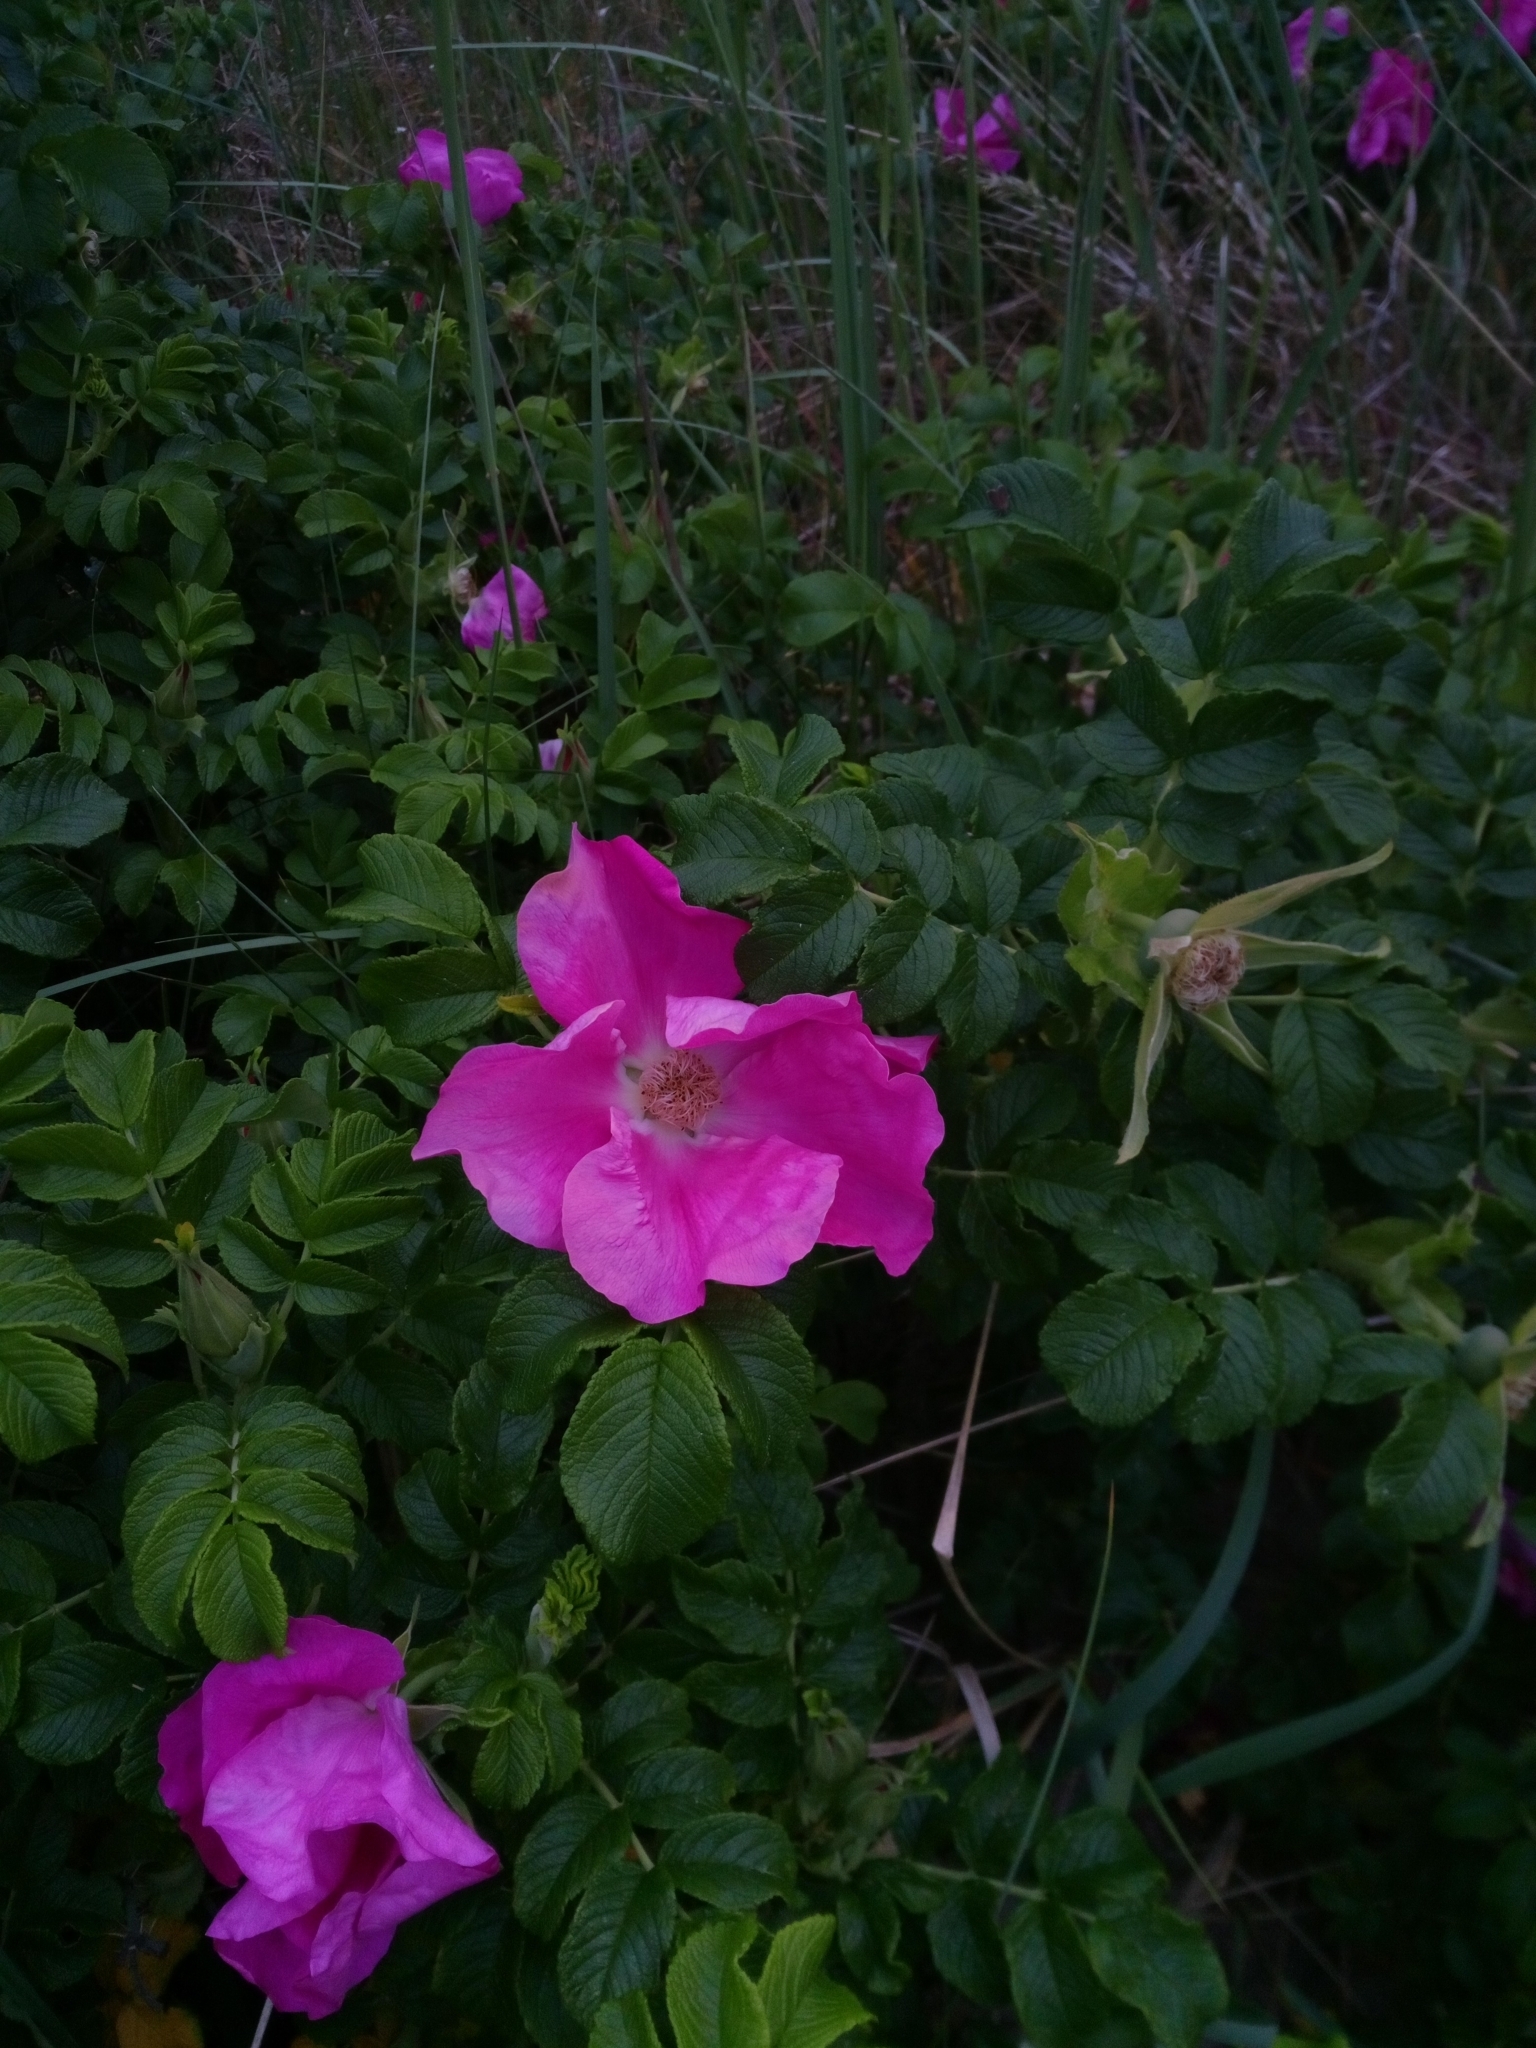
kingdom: Plantae
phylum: Tracheophyta
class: Magnoliopsida
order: Rosales
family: Rosaceae
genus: Rosa
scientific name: Rosa rugosa
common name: Japanese rose
